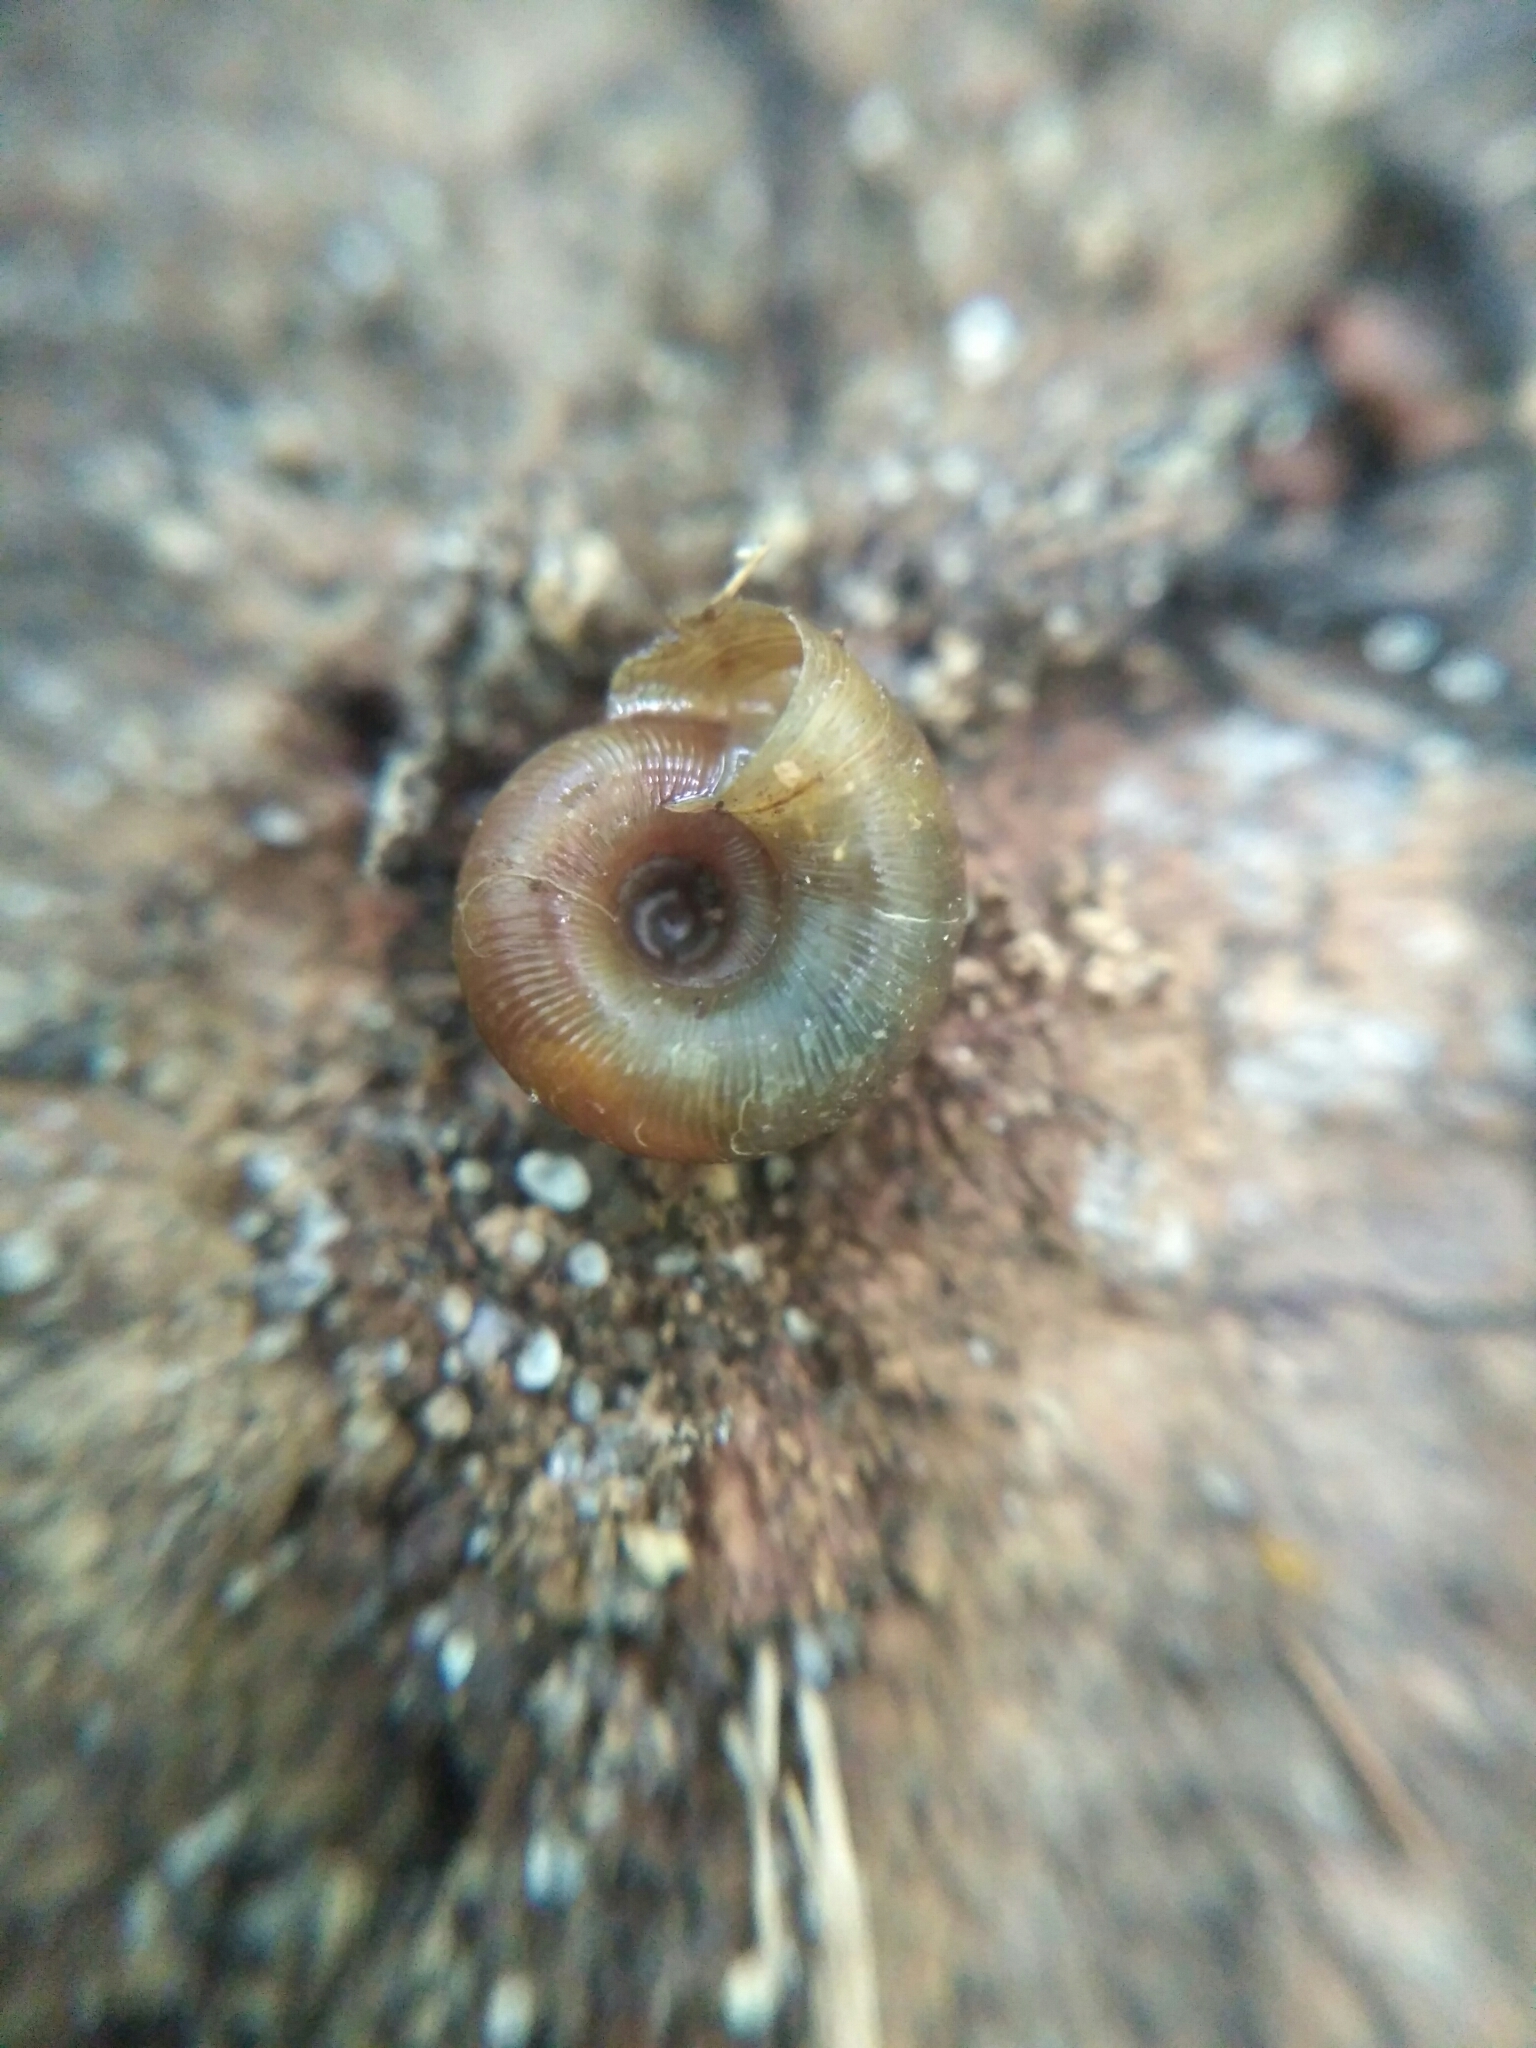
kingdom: Animalia
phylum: Mollusca
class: Gastropoda
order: Stylommatophora
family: Discidae
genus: Discus
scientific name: Discus ruderatus
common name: Brown disc snail
